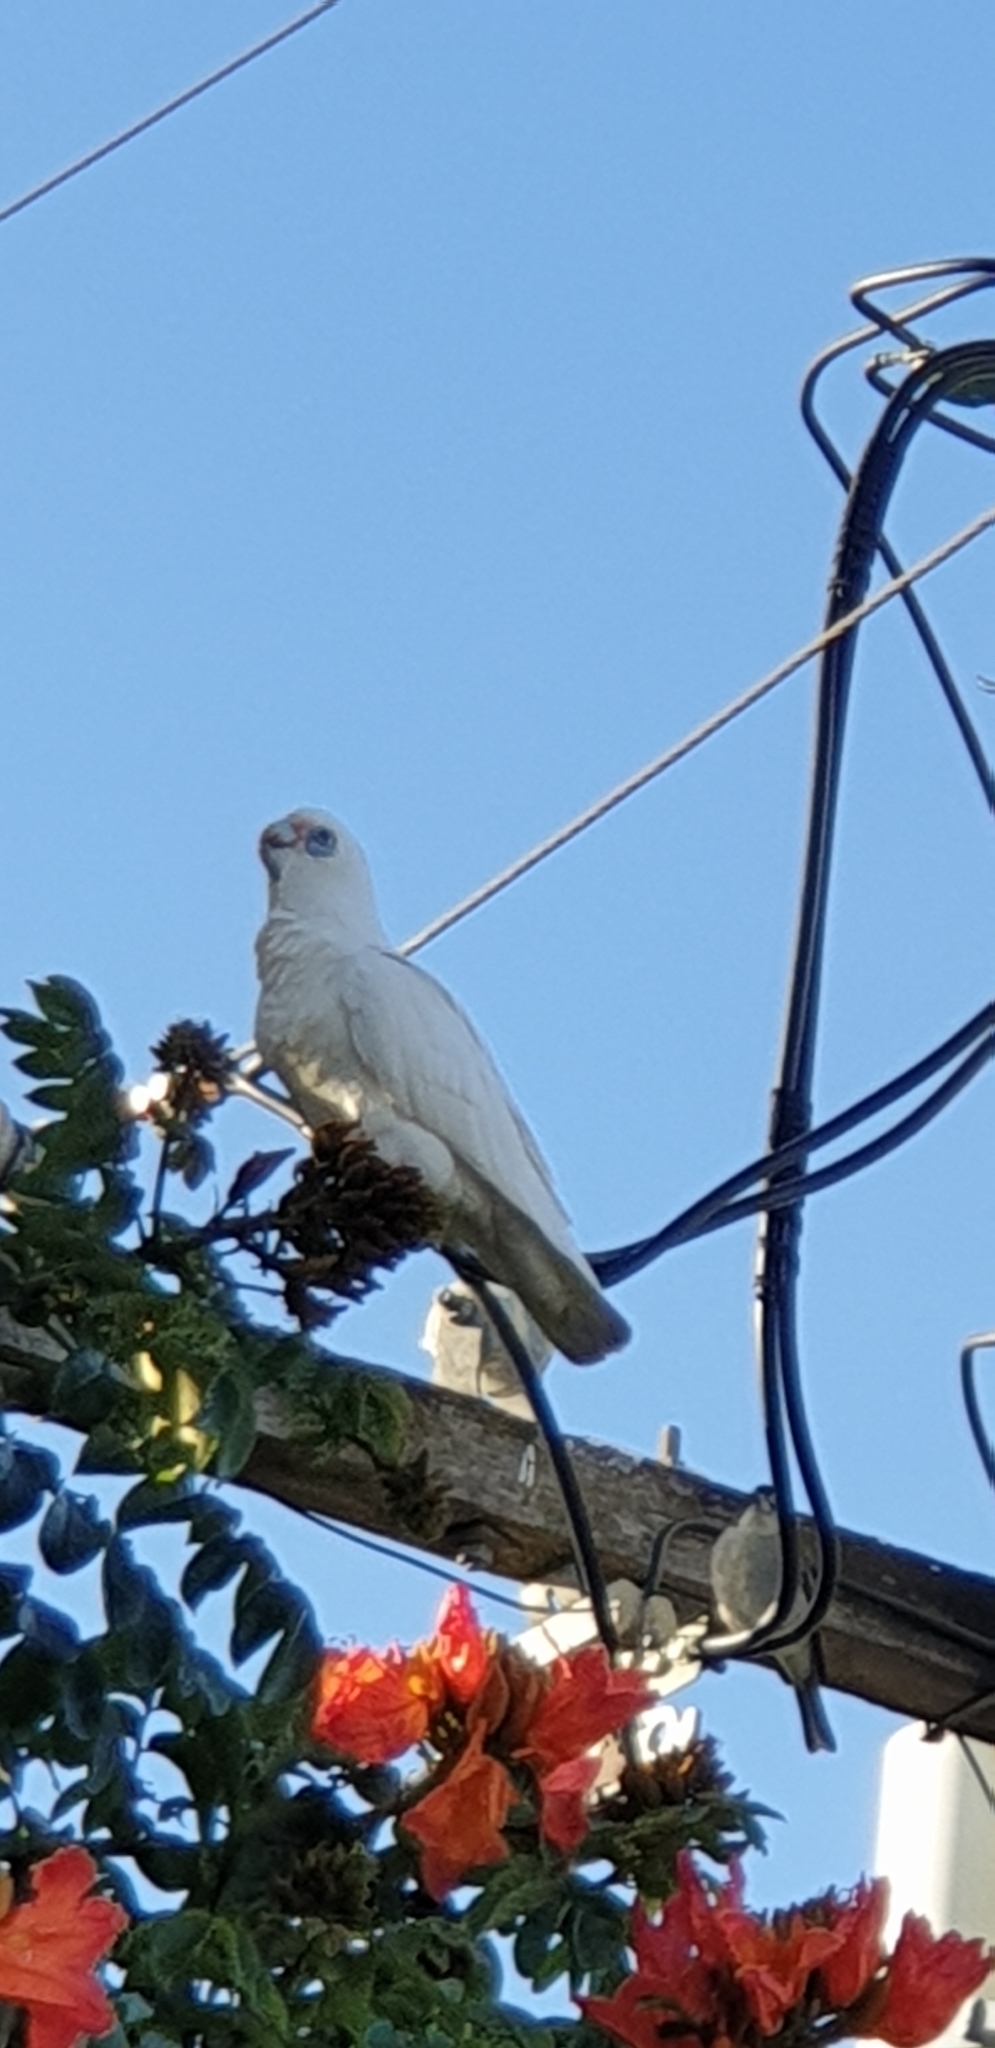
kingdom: Animalia
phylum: Chordata
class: Aves
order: Psittaciformes
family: Psittacidae
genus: Cacatua
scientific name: Cacatua sanguinea
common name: Little corella
